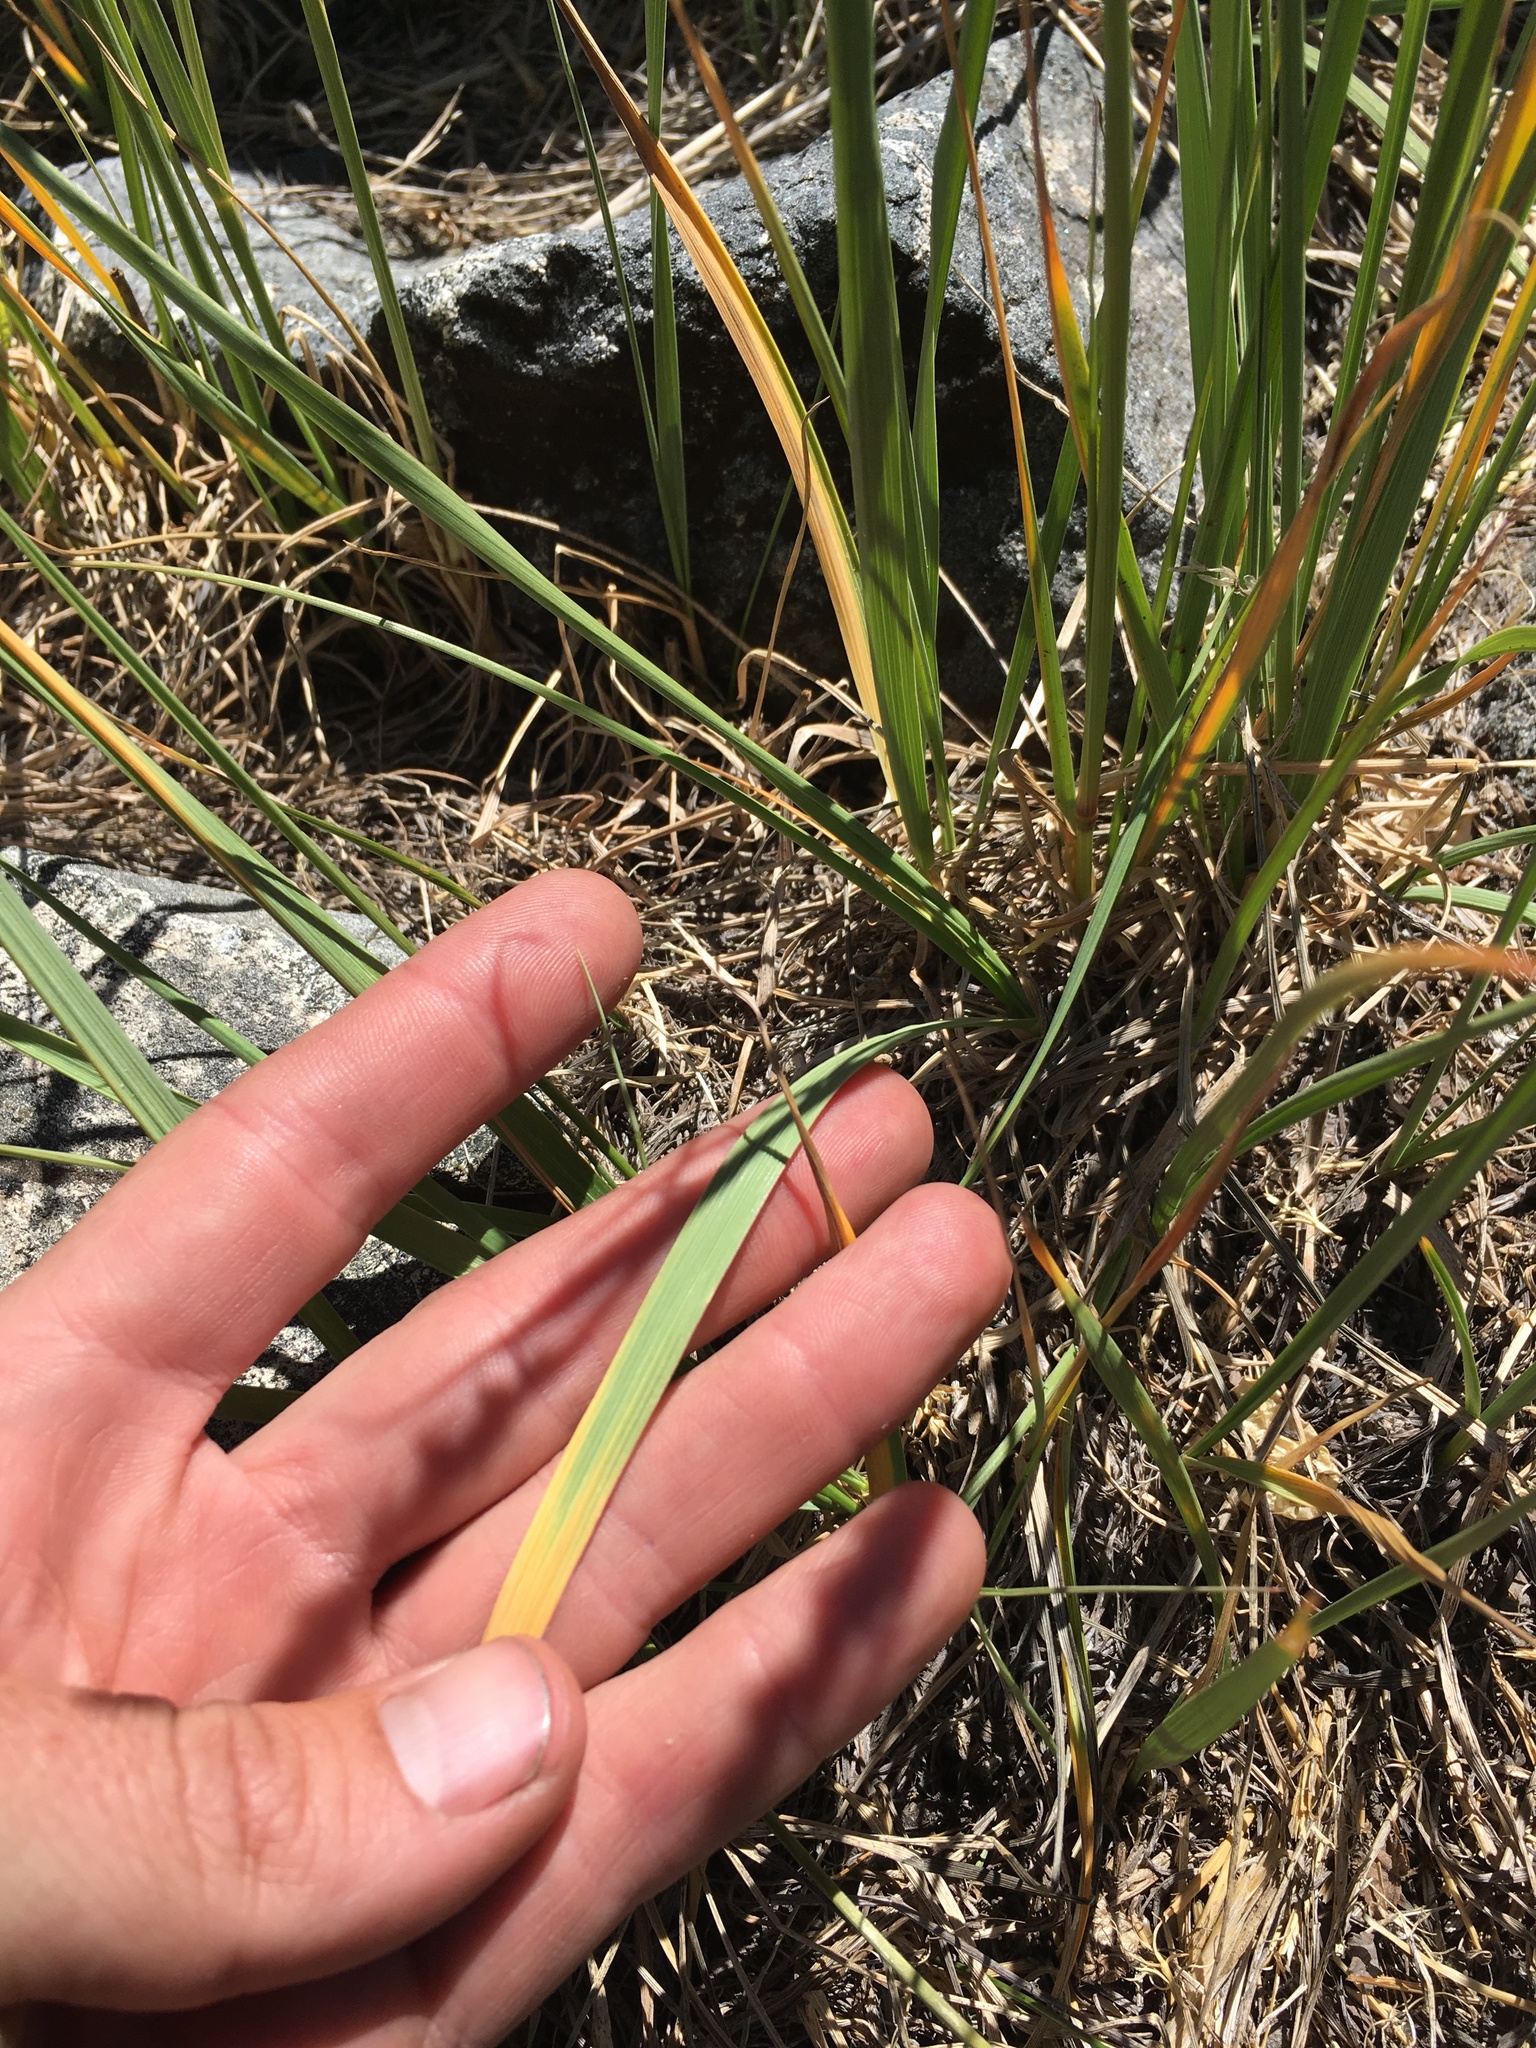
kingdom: Plantae
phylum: Tracheophyta
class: Liliopsida
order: Poales
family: Poaceae
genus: Festuca
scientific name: Festuca kingii
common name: Spike fescue
